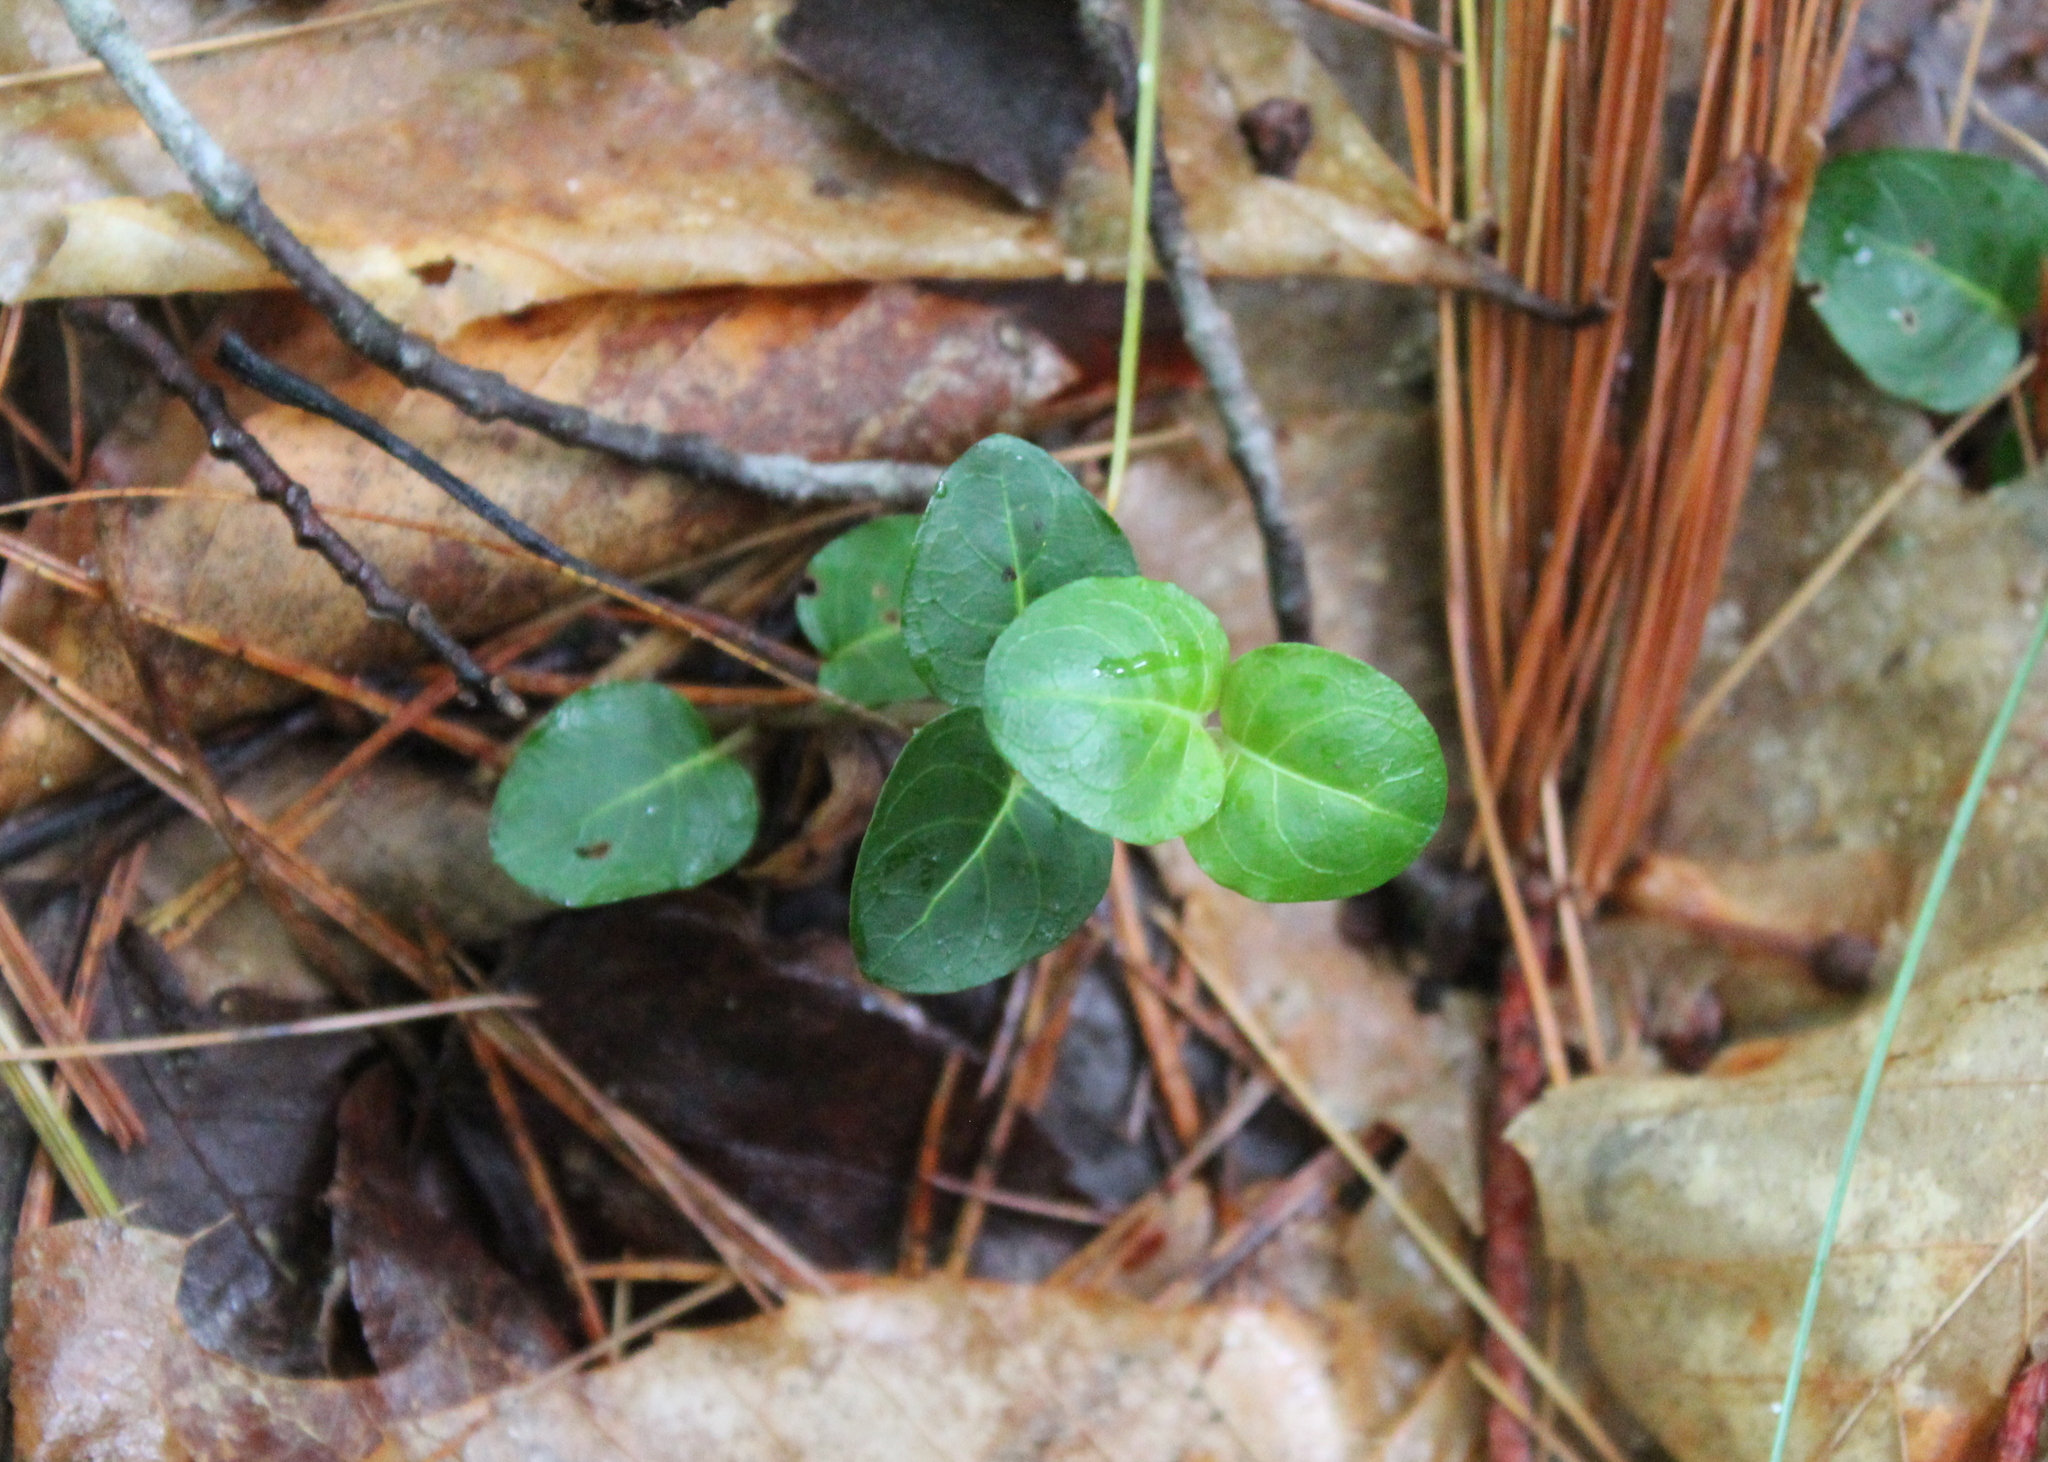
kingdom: Plantae
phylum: Tracheophyta
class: Magnoliopsida
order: Gentianales
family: Rubiaceae
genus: Mitchella
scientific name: Mitchella repens
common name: Partridge-berry
